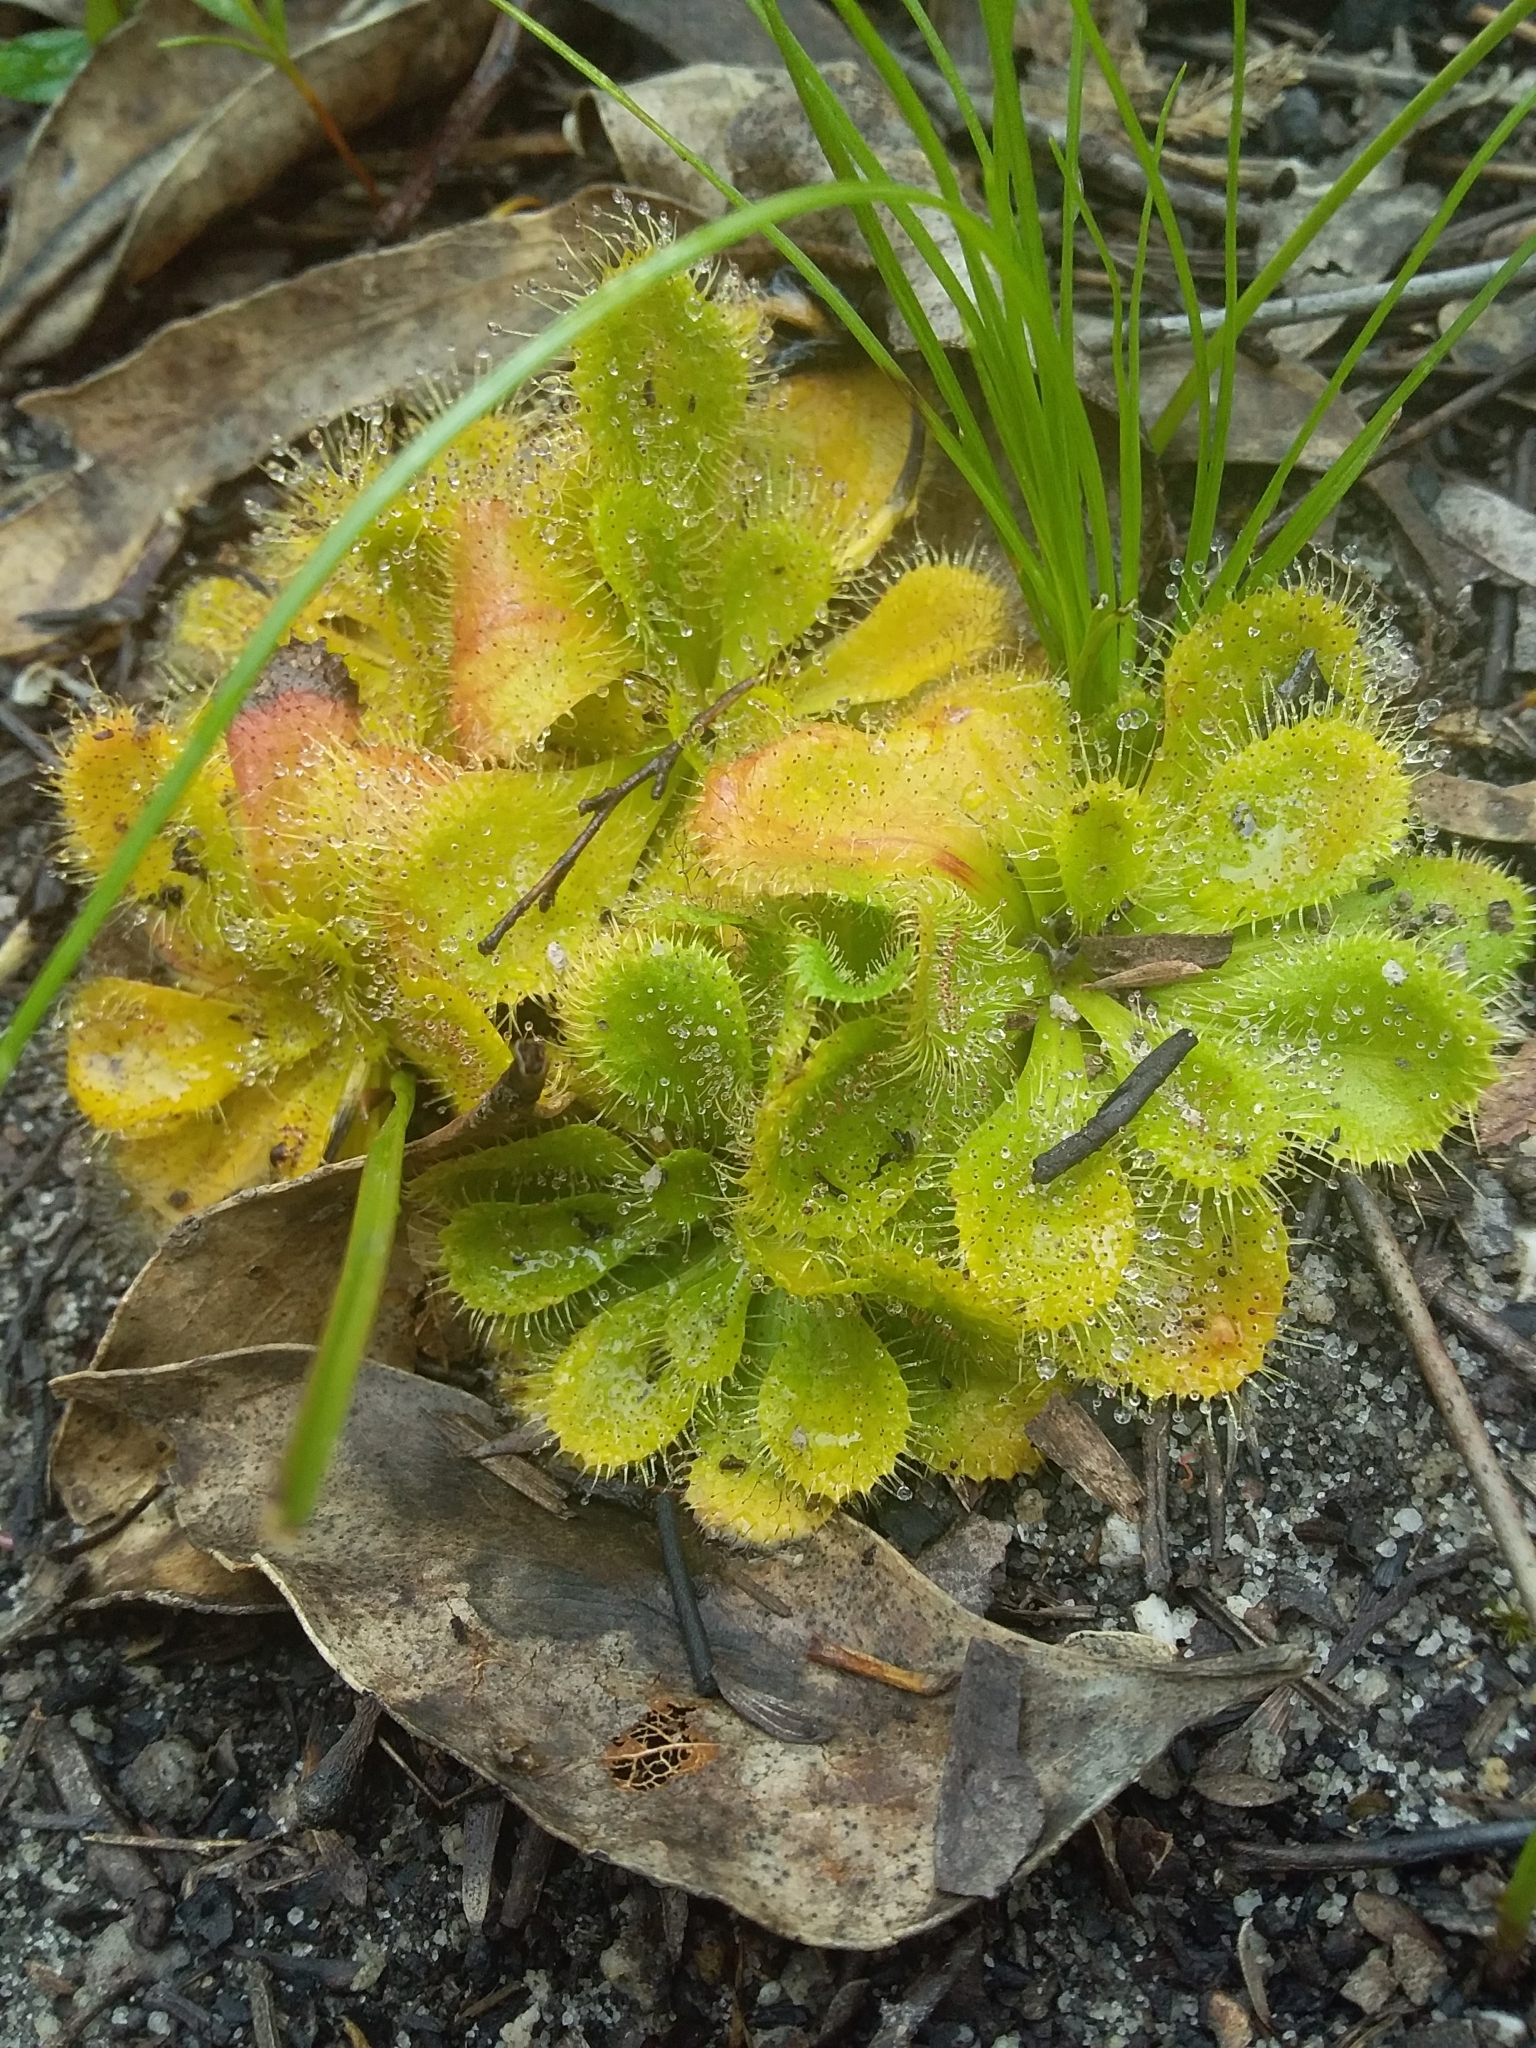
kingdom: Plantae
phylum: Tracheophyta
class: Magnoliopsida
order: Caryophyllales
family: Droseraceae
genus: Drosera
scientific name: Drosera whittakeri
